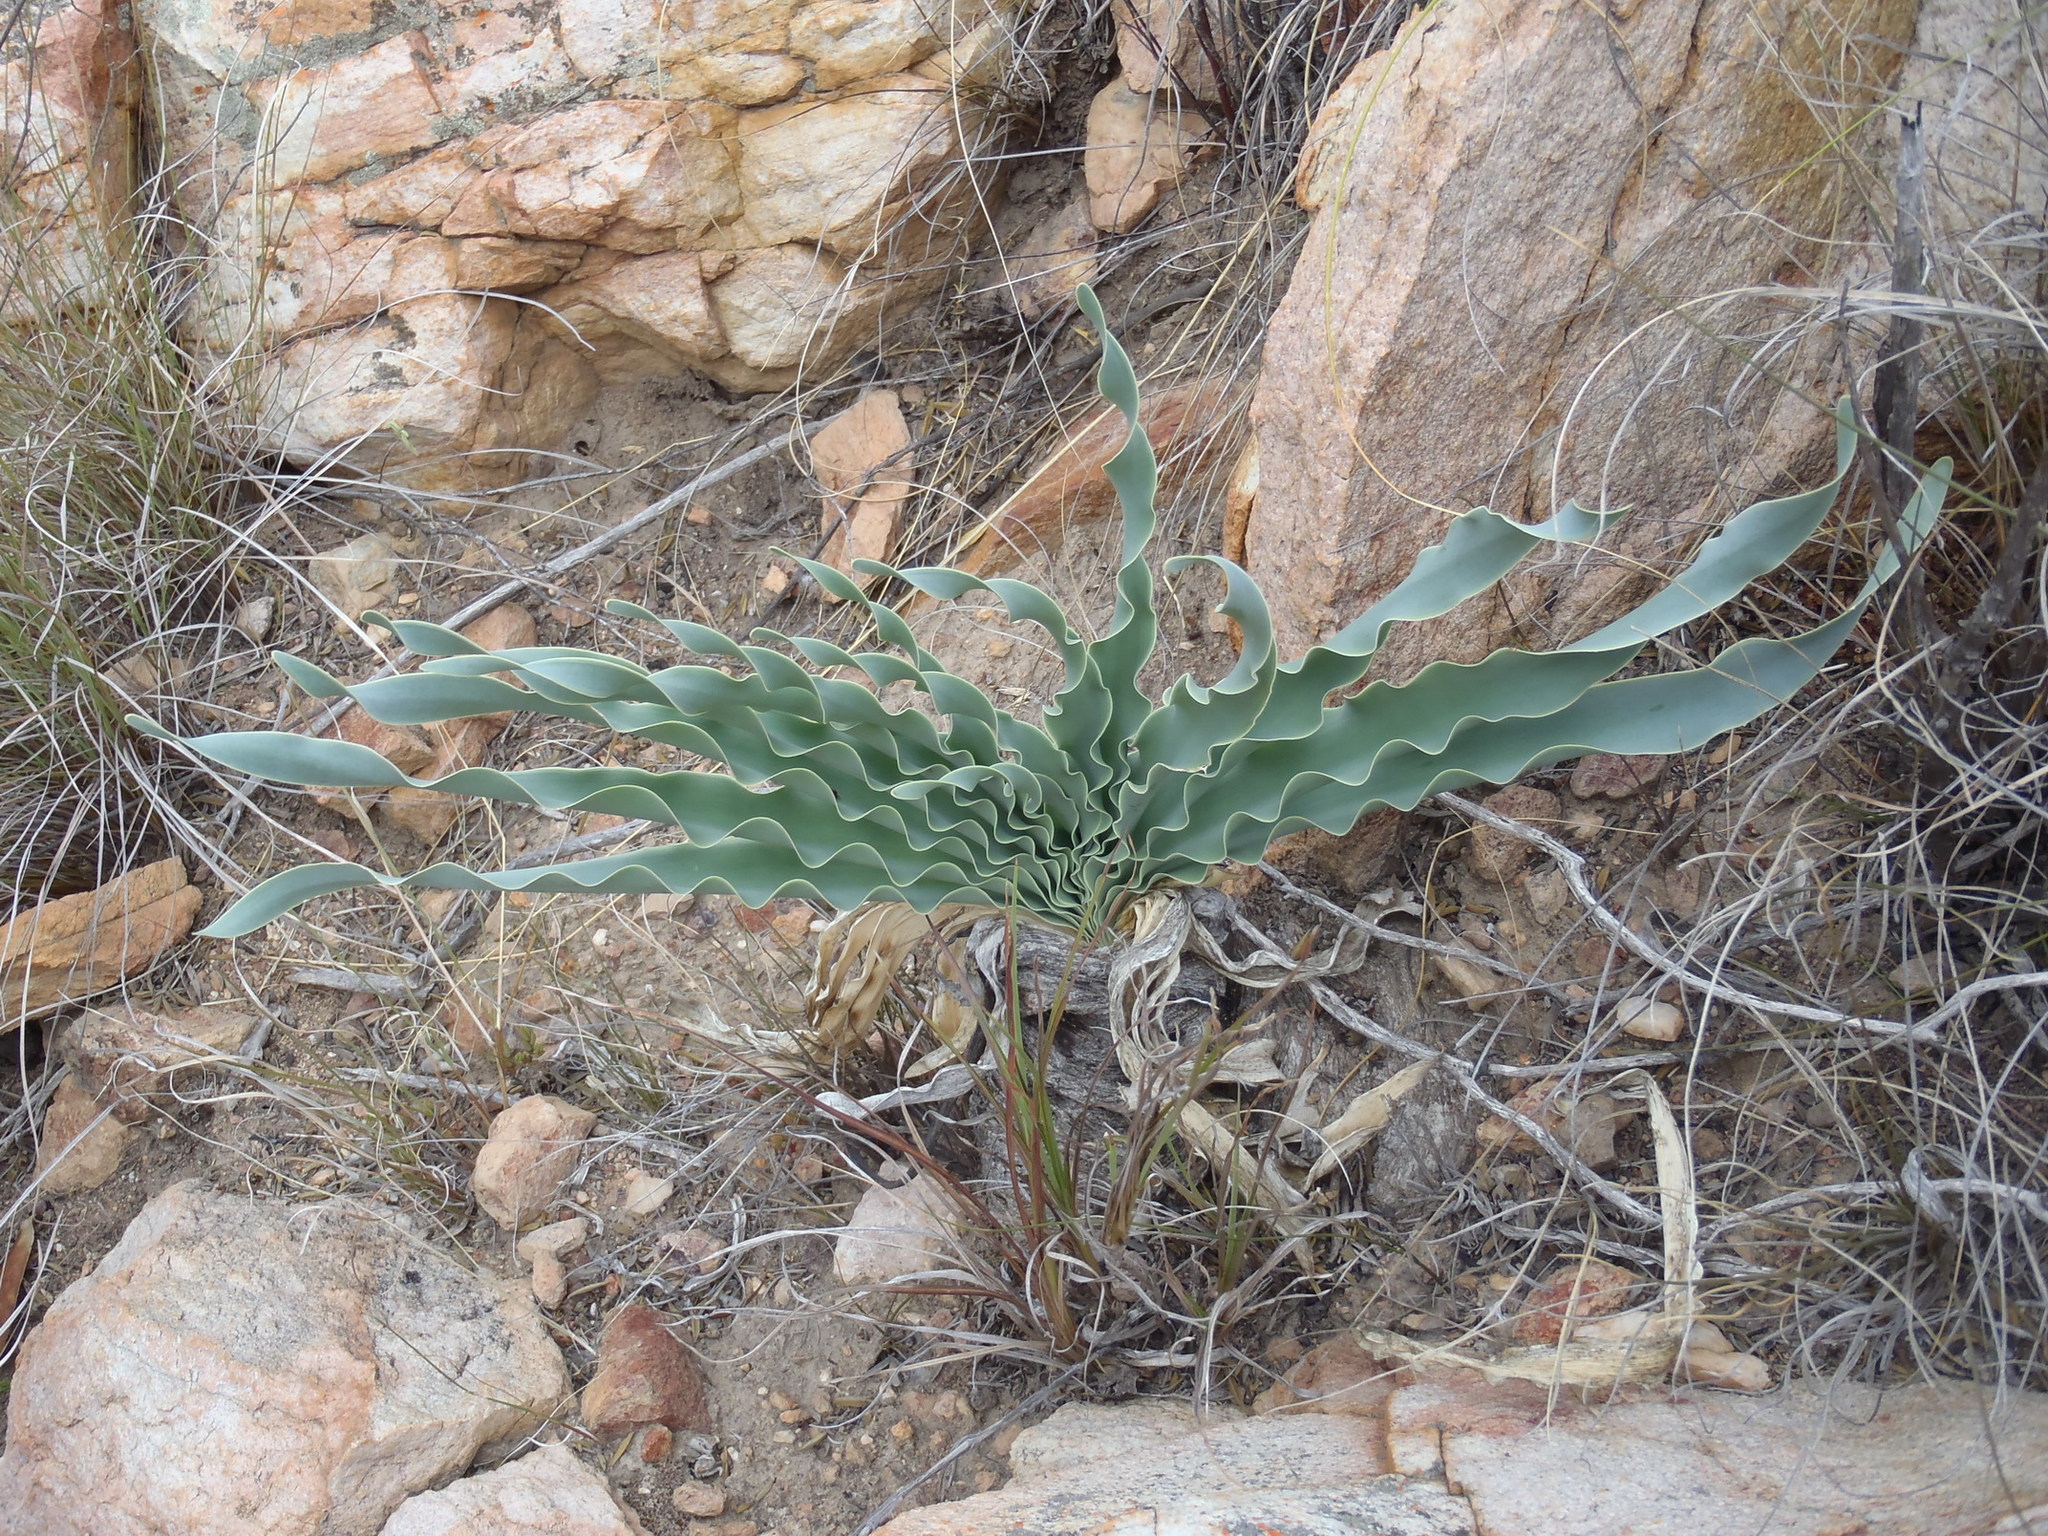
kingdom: Plantae
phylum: Tracheophyta
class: Liliopsida
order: Asparagales
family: Amaryllidaceae
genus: Boophone
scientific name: Boophone disticha
